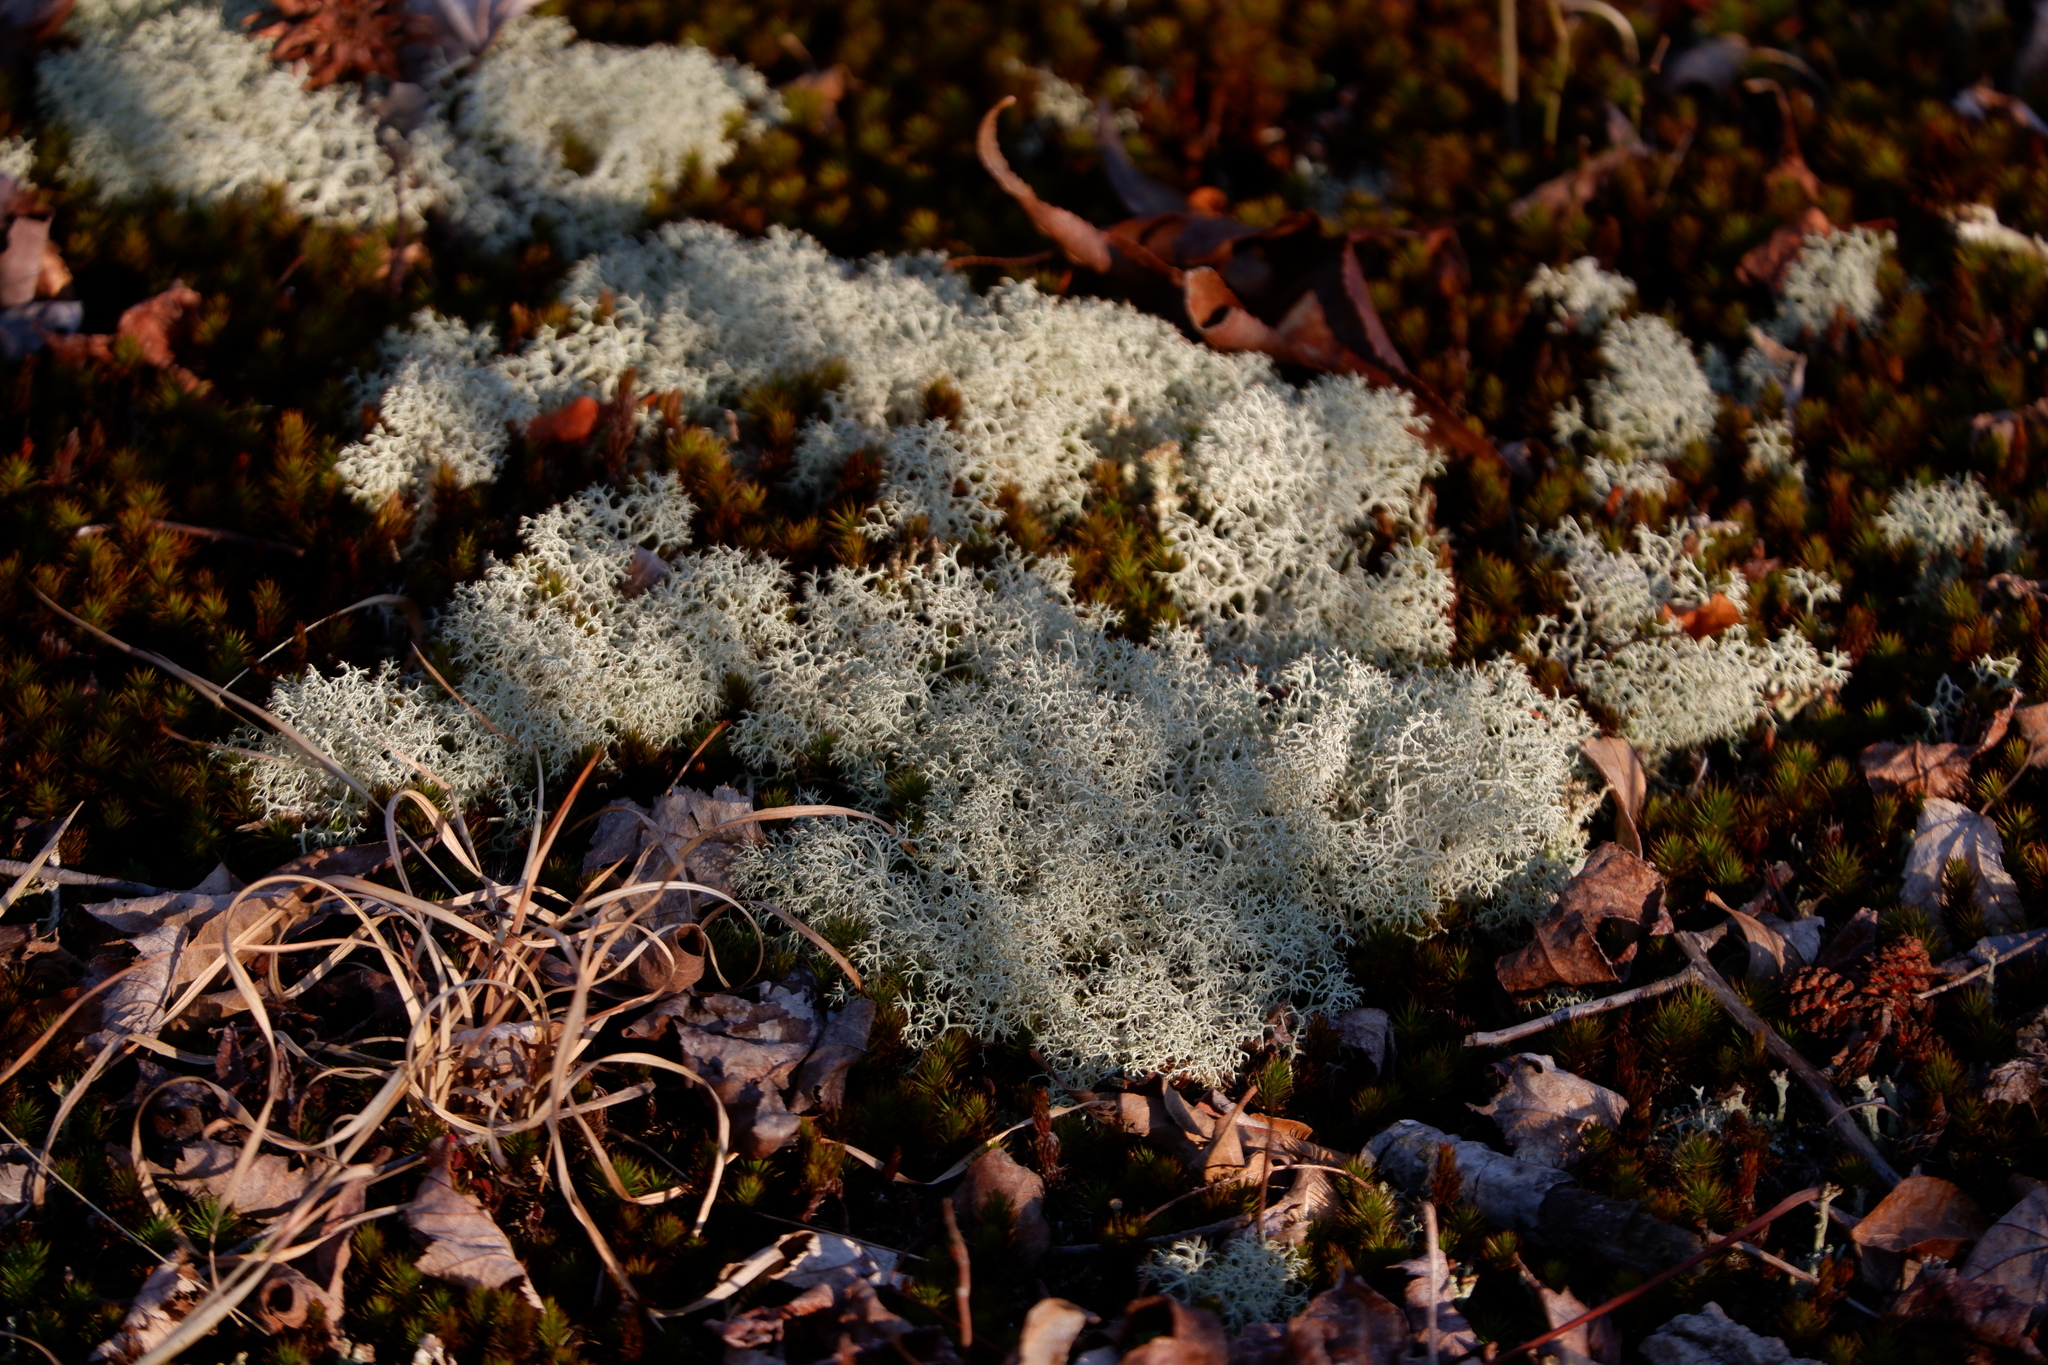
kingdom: Fungi
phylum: Ascomycota
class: Lecanoromycetes
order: Lecanorales
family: Cladoniaceae
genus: Cladonia
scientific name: Cladonia subtenuis
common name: Dixie reindeer lichen
